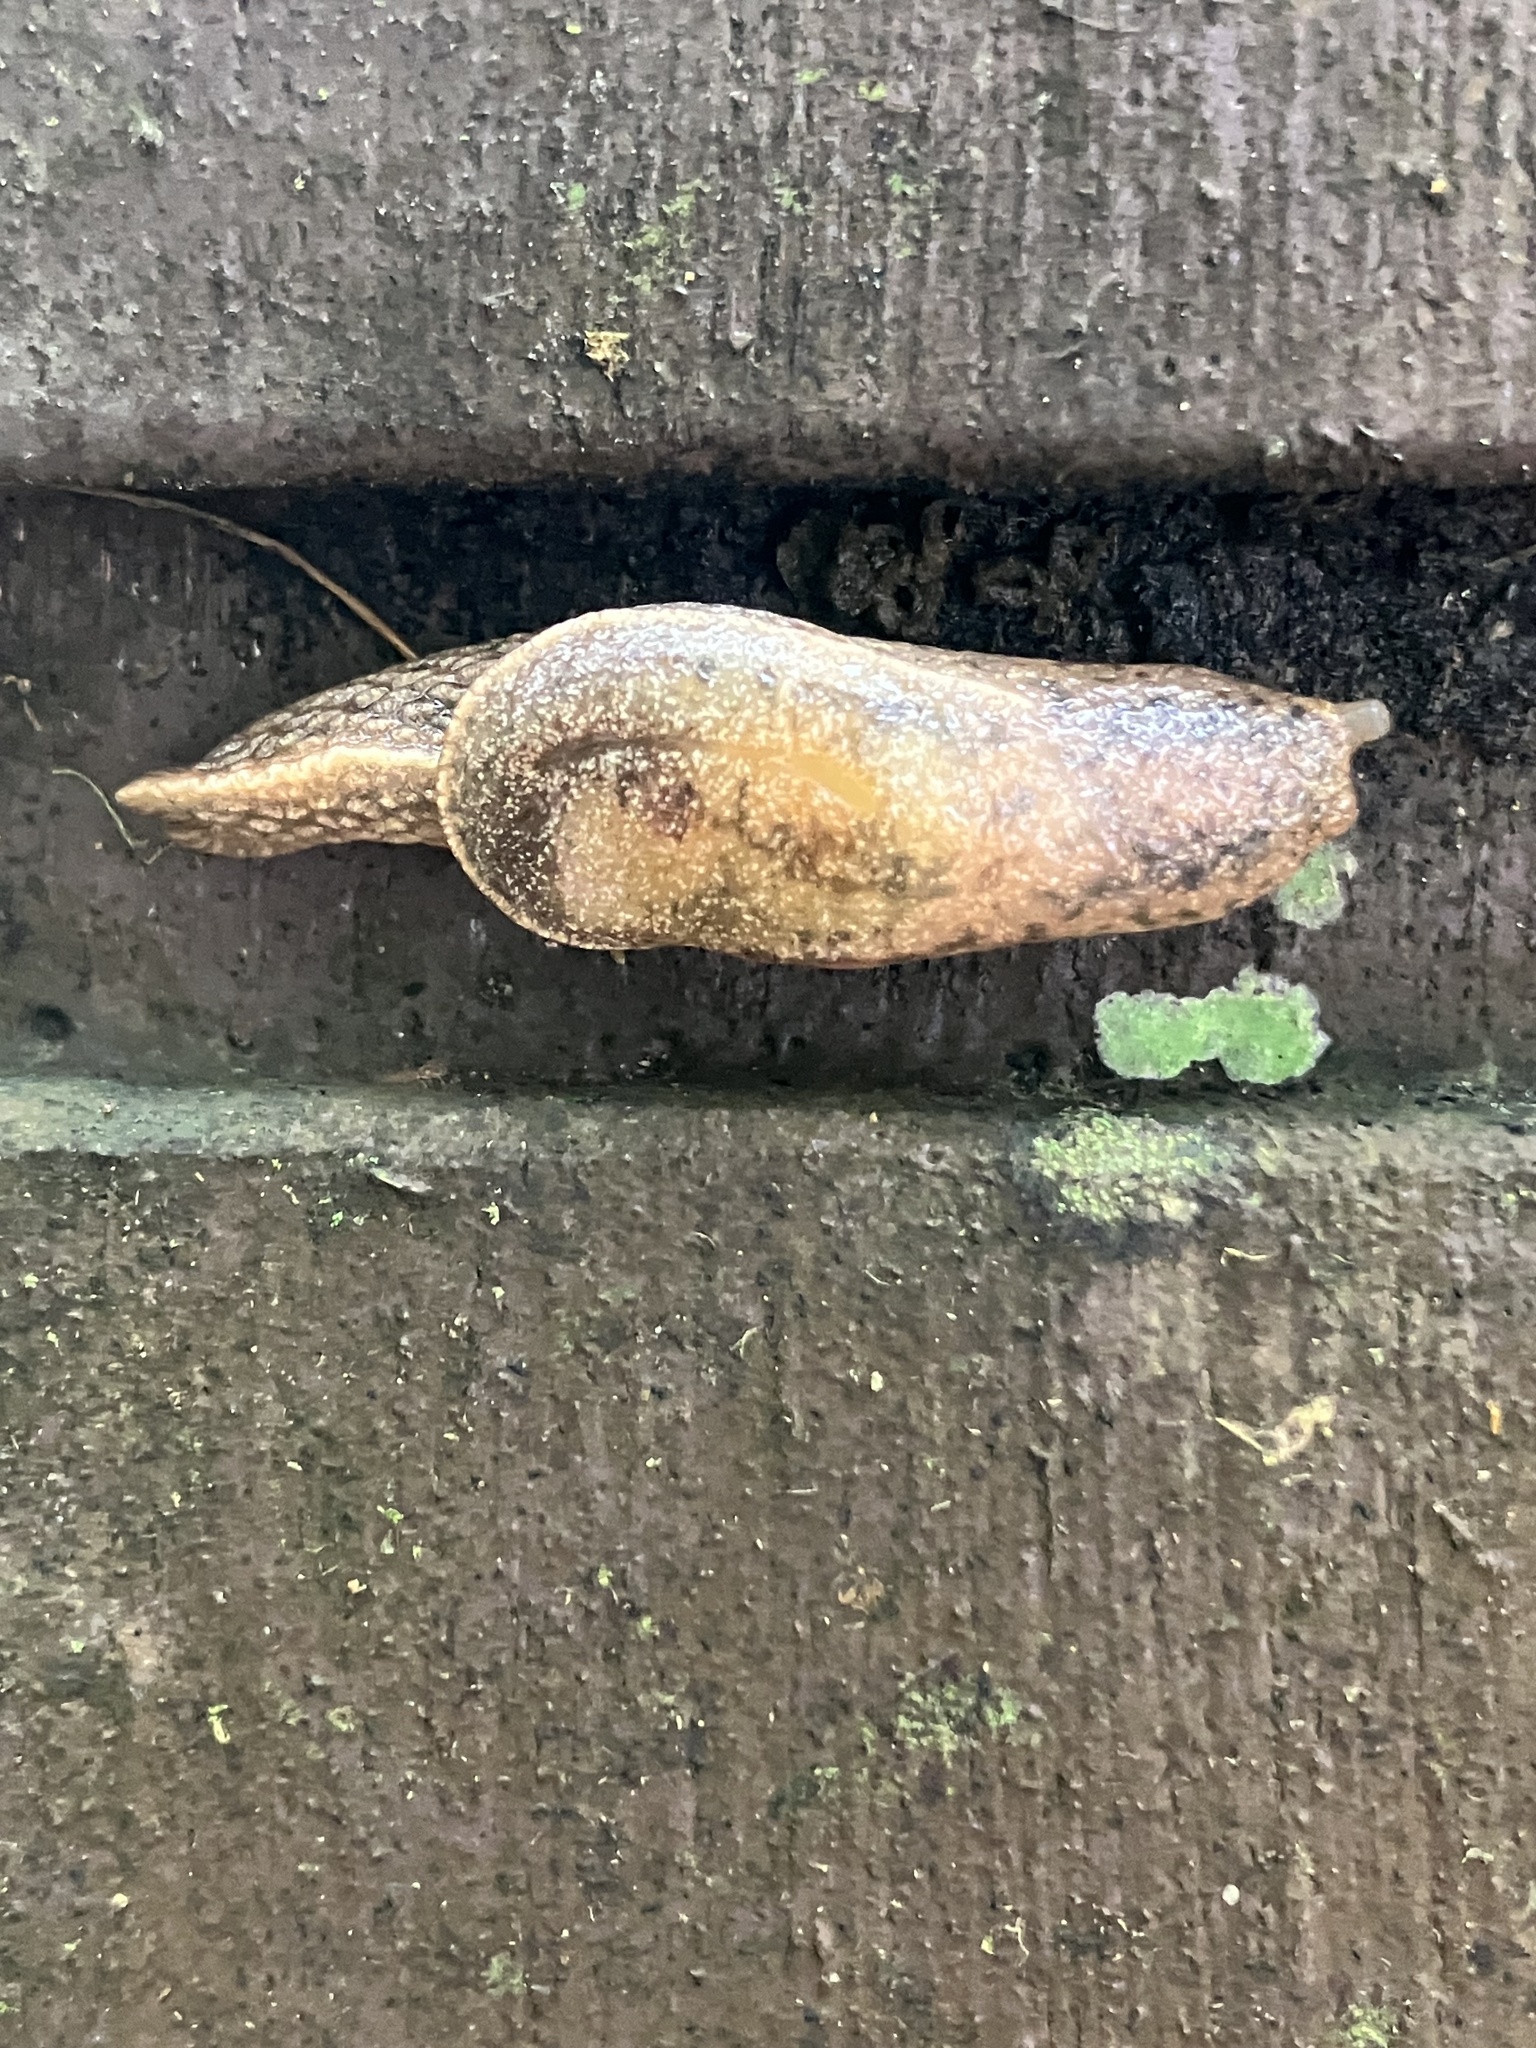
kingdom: Animalia
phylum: Mollusca
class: Gastropoda
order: Stylommatophora
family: Ariophantidae
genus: Parmarion
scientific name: Parmarion martensi
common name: Semi-slug
